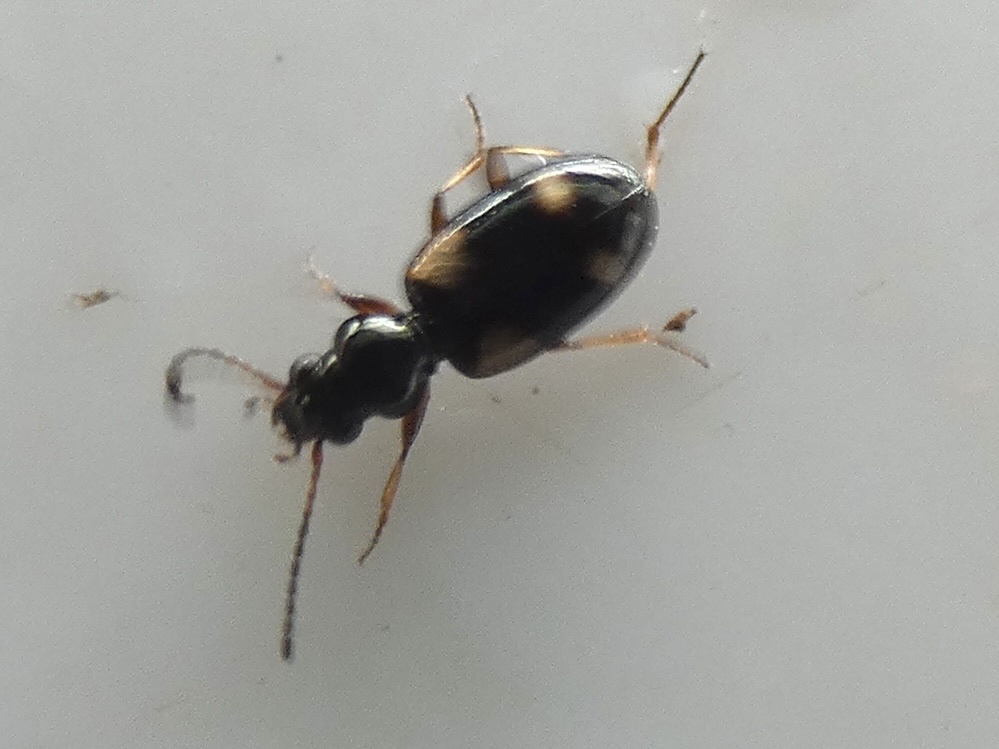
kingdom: Animalia
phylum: Arthropoda
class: Insecta
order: Coleoptera
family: Carabidae
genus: Bembidion
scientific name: Bembidion quadrimaculatum
